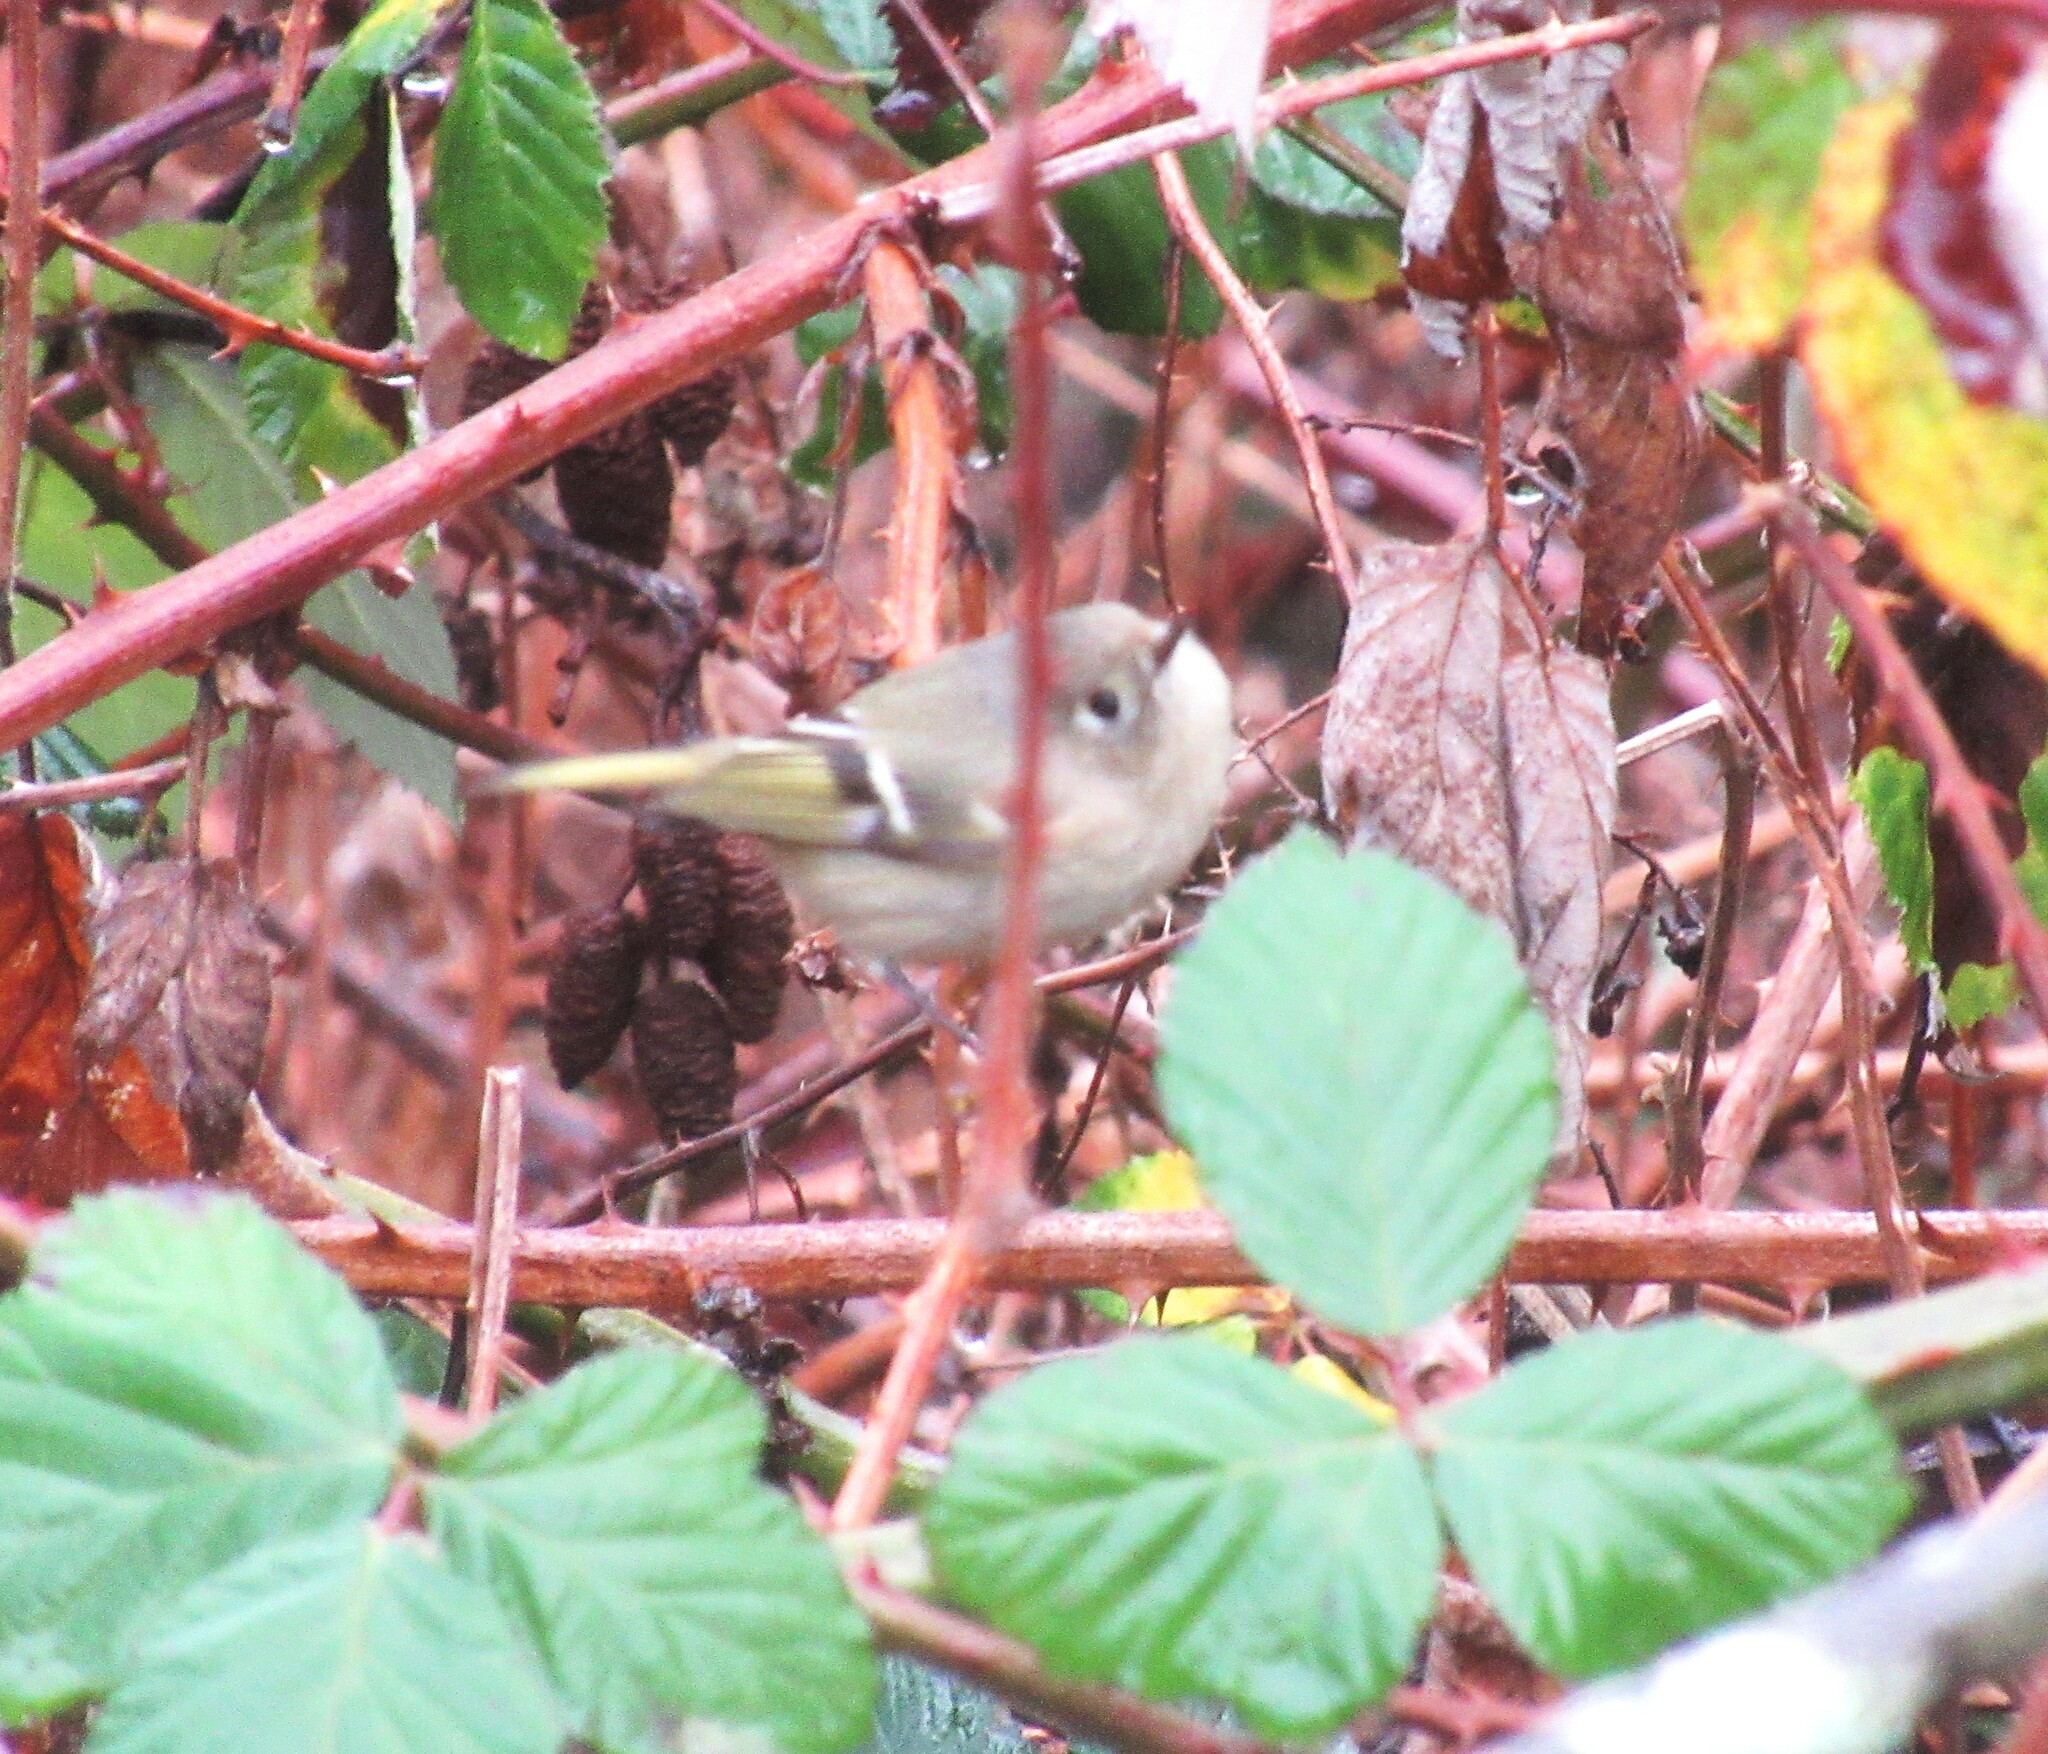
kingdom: Animalia
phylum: Chordata
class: Aves
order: Passeriformes
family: Regulidae
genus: Regulus
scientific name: Regulus calendula
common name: Ruby-crowned kinglet
